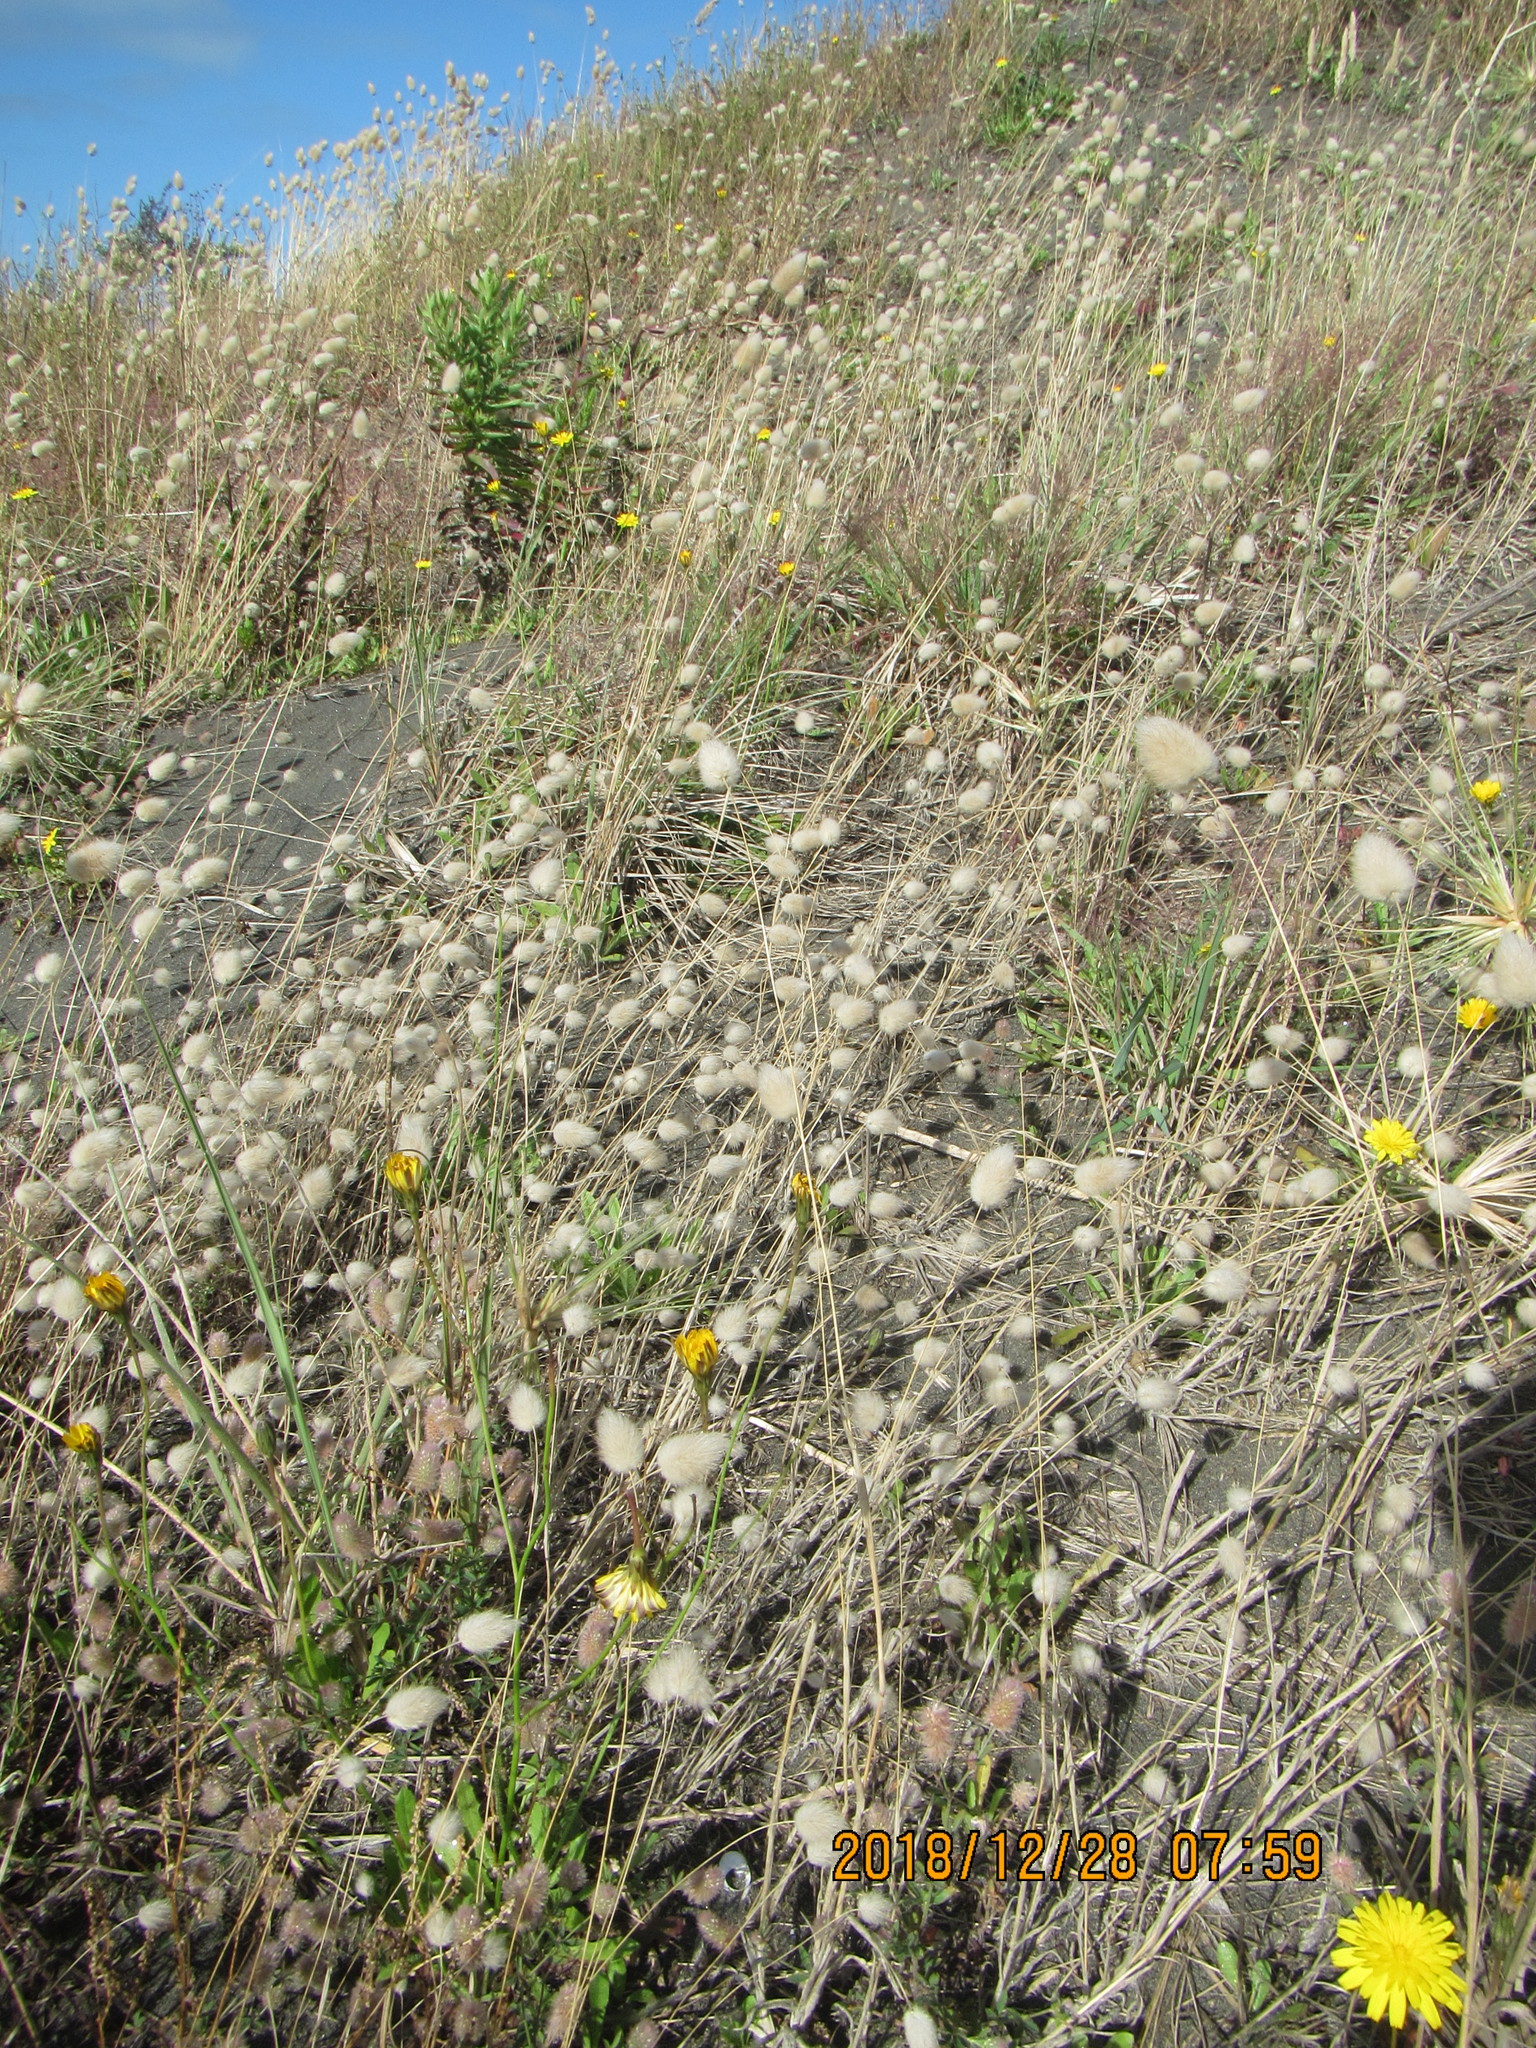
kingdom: Plantae
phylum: Tracheophyta
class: Liliopsida
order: Poales
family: Poaceae
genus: Lagurus
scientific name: Lagurus ovatus
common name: Hare's-tail
